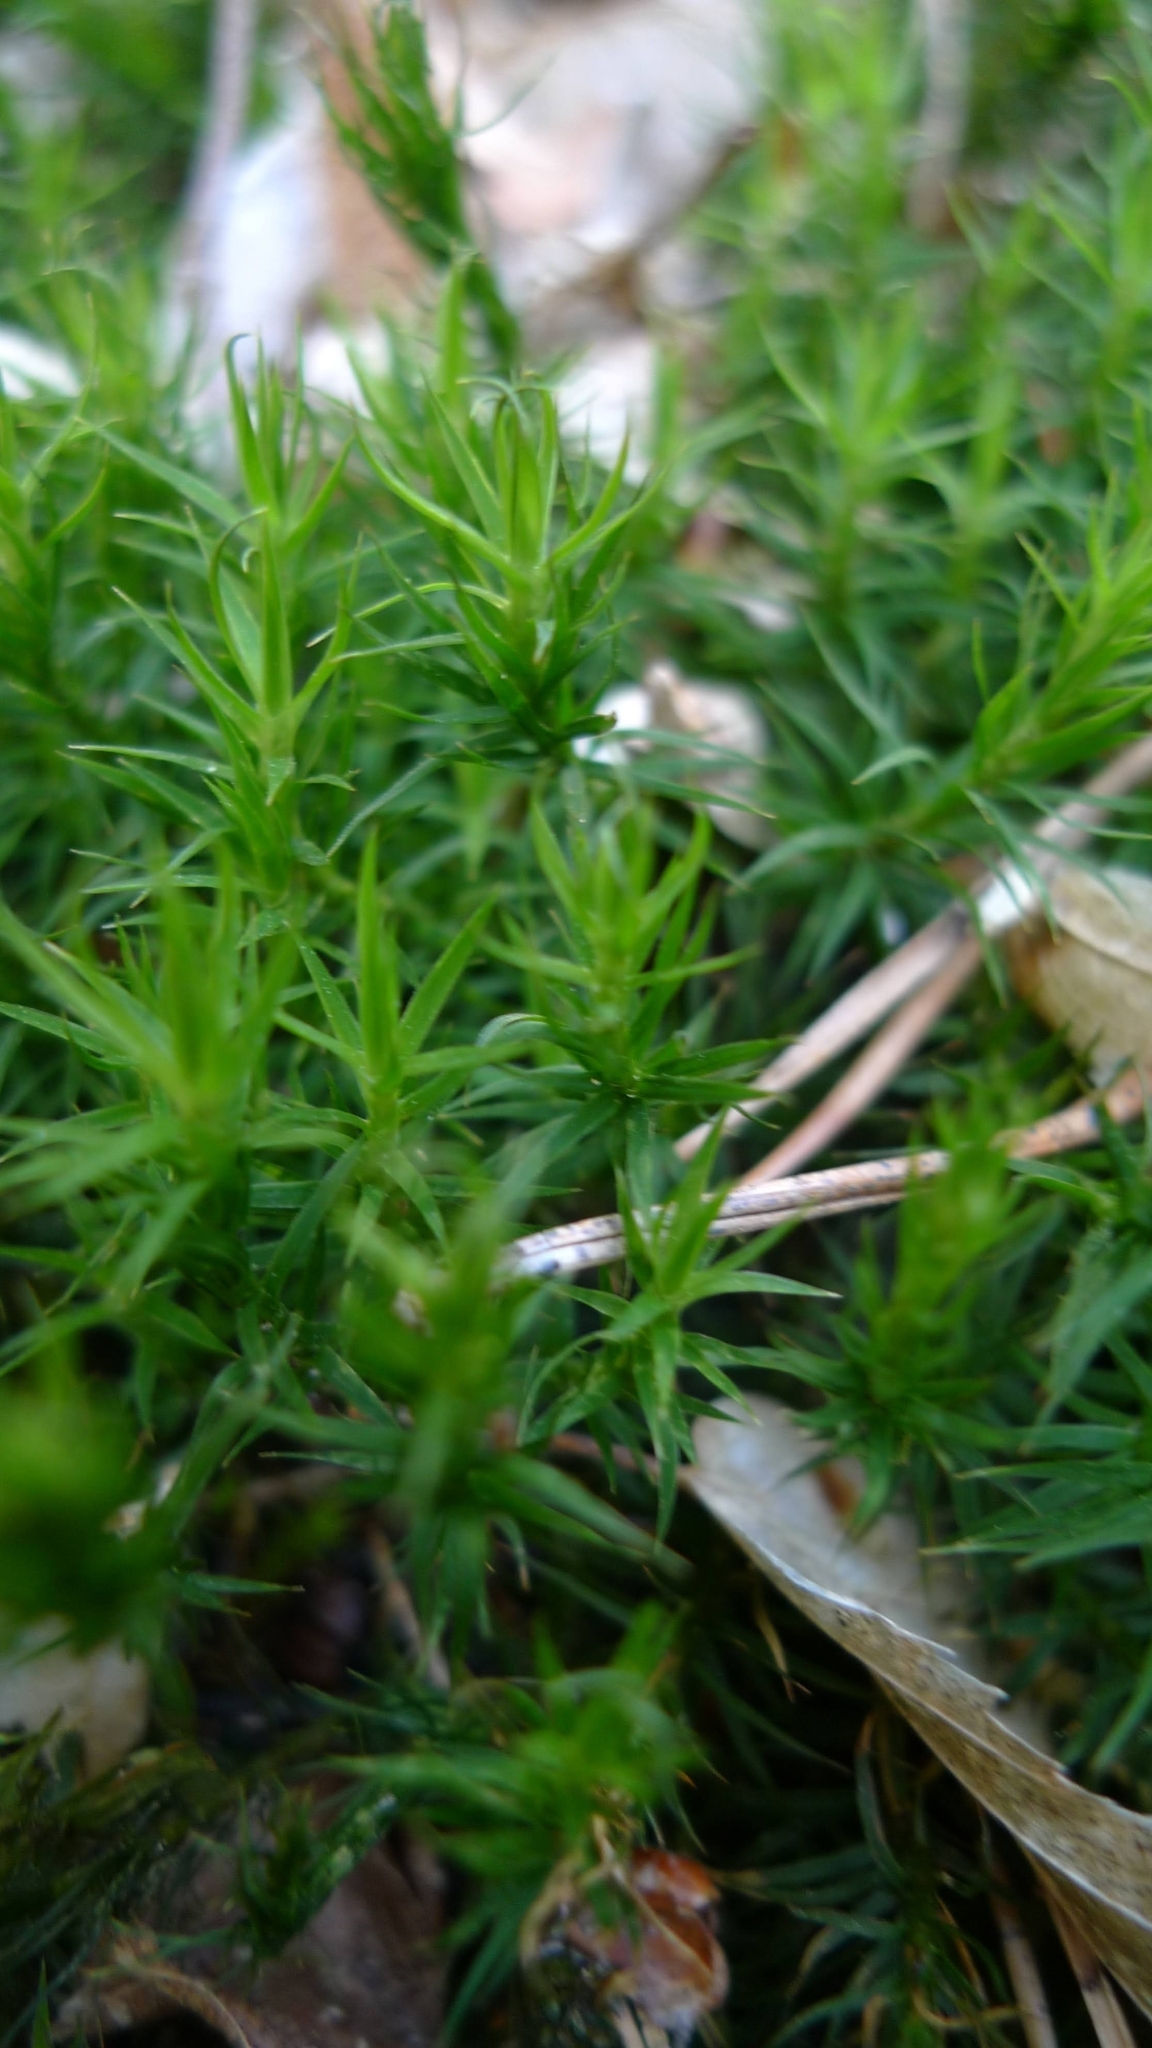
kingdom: Plantae
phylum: Bryophyta
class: Polytrichopsida
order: Polytrichales
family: Polytrichaceae
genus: Polytrichum
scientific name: Polytrichum formosum
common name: Bank haircap moss
